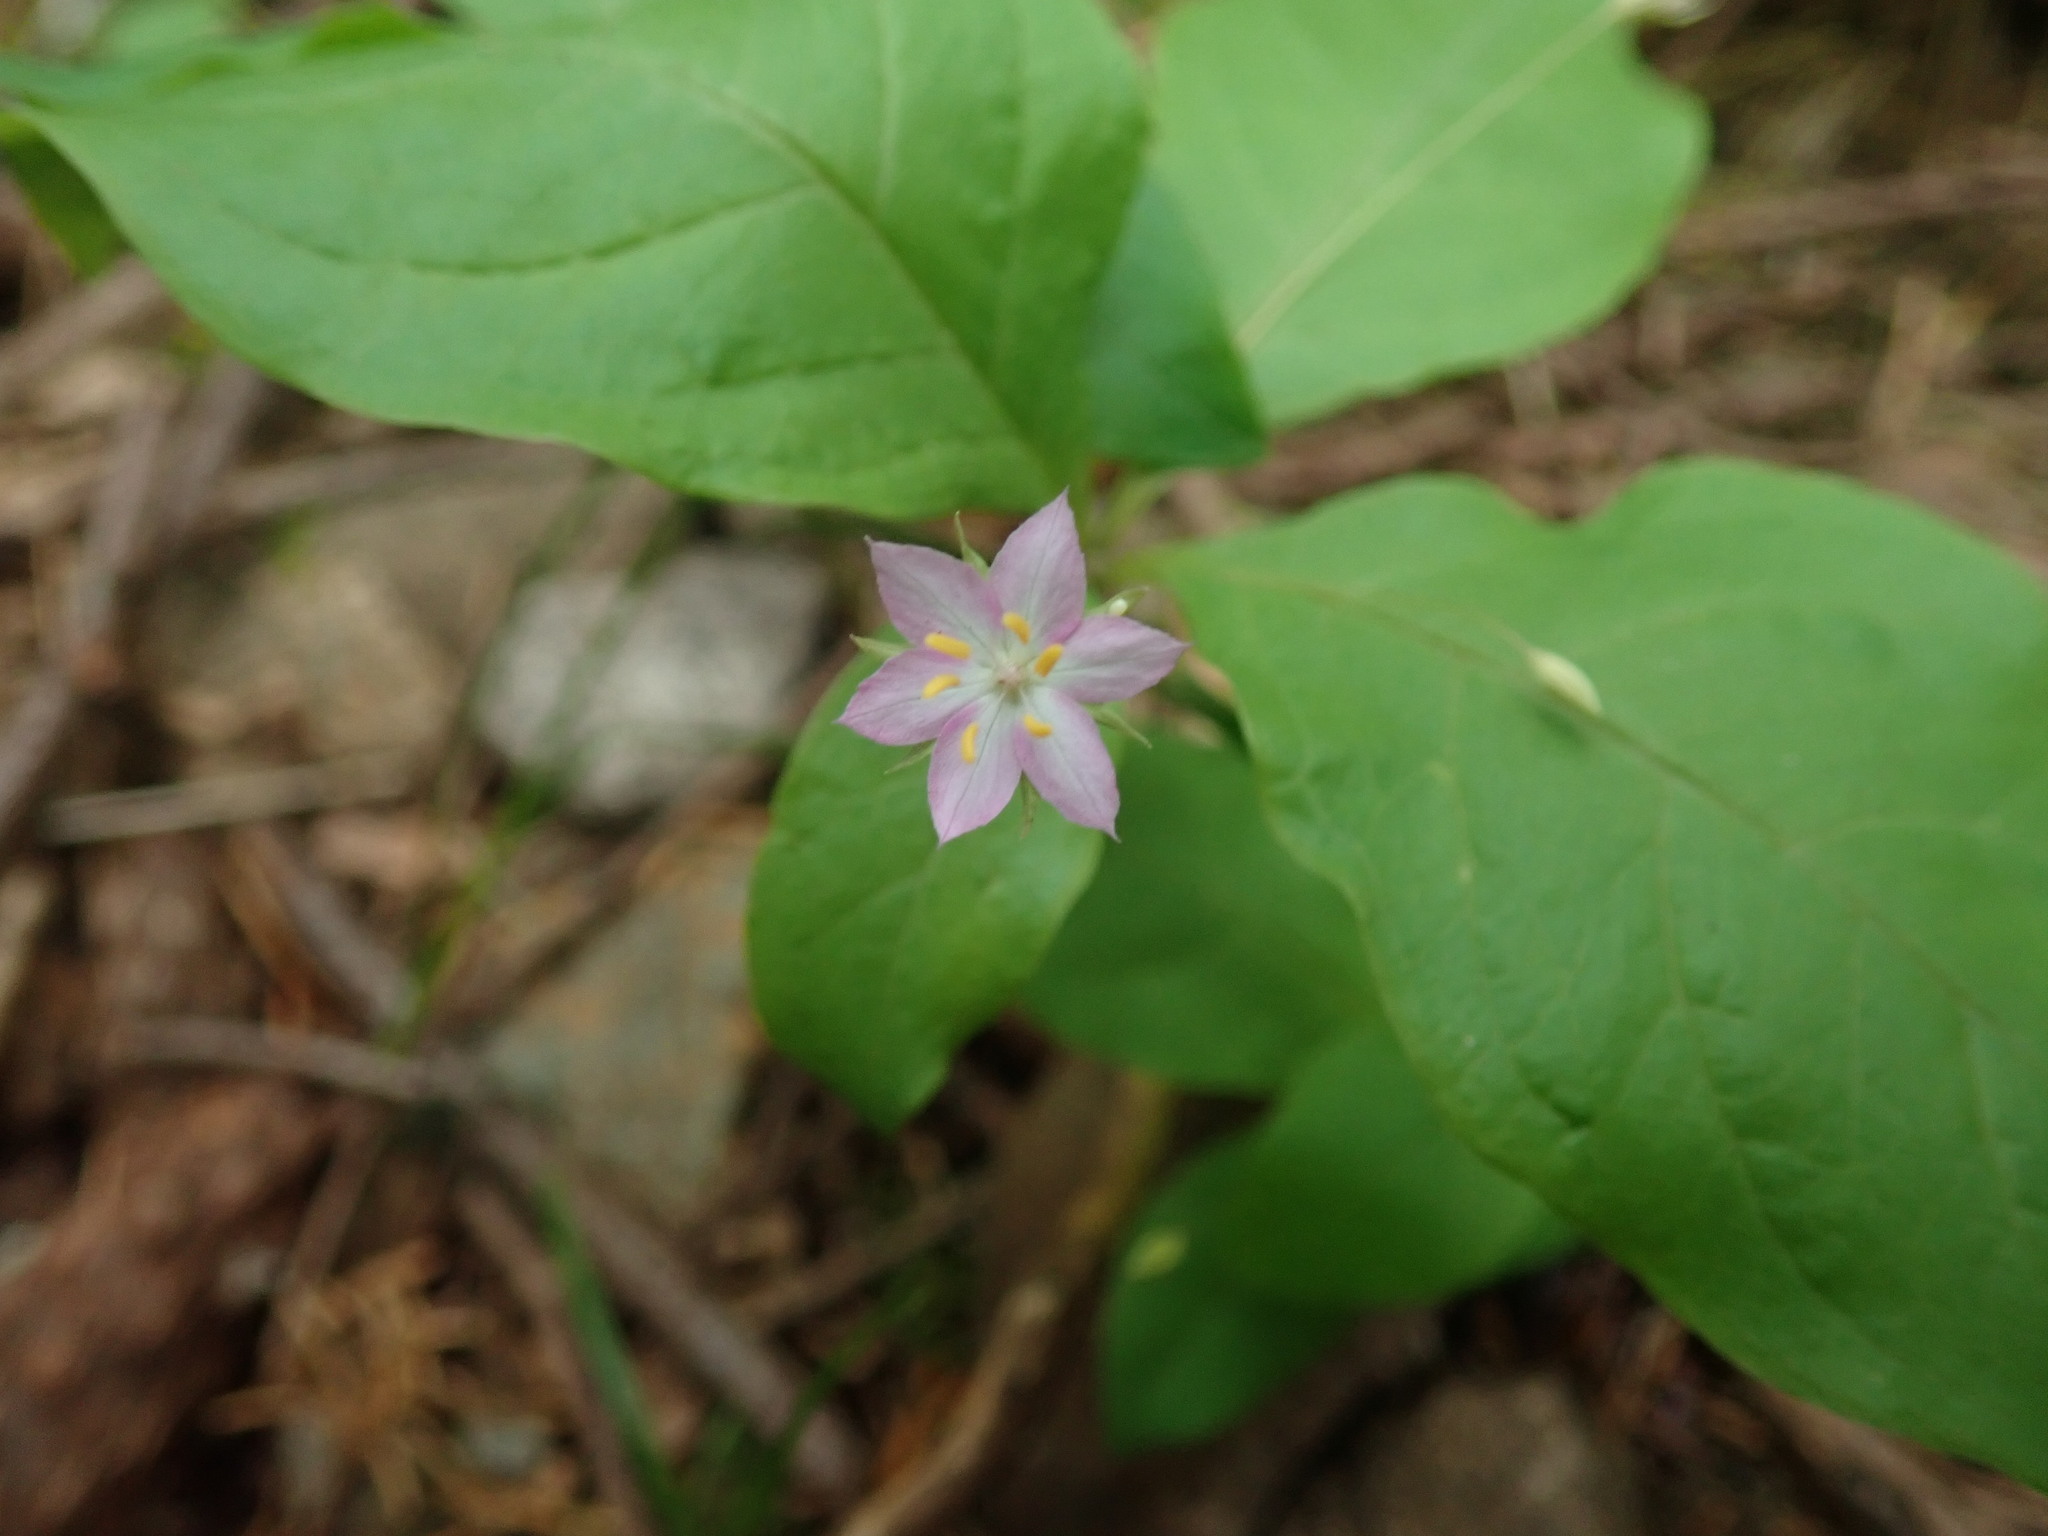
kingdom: Plantae
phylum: Tracheophyta
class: Magnoliopsida
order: Ericales
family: Primulaceae
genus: Lysimachia
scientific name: Lysimachia latifolia
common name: Pacific starflower
